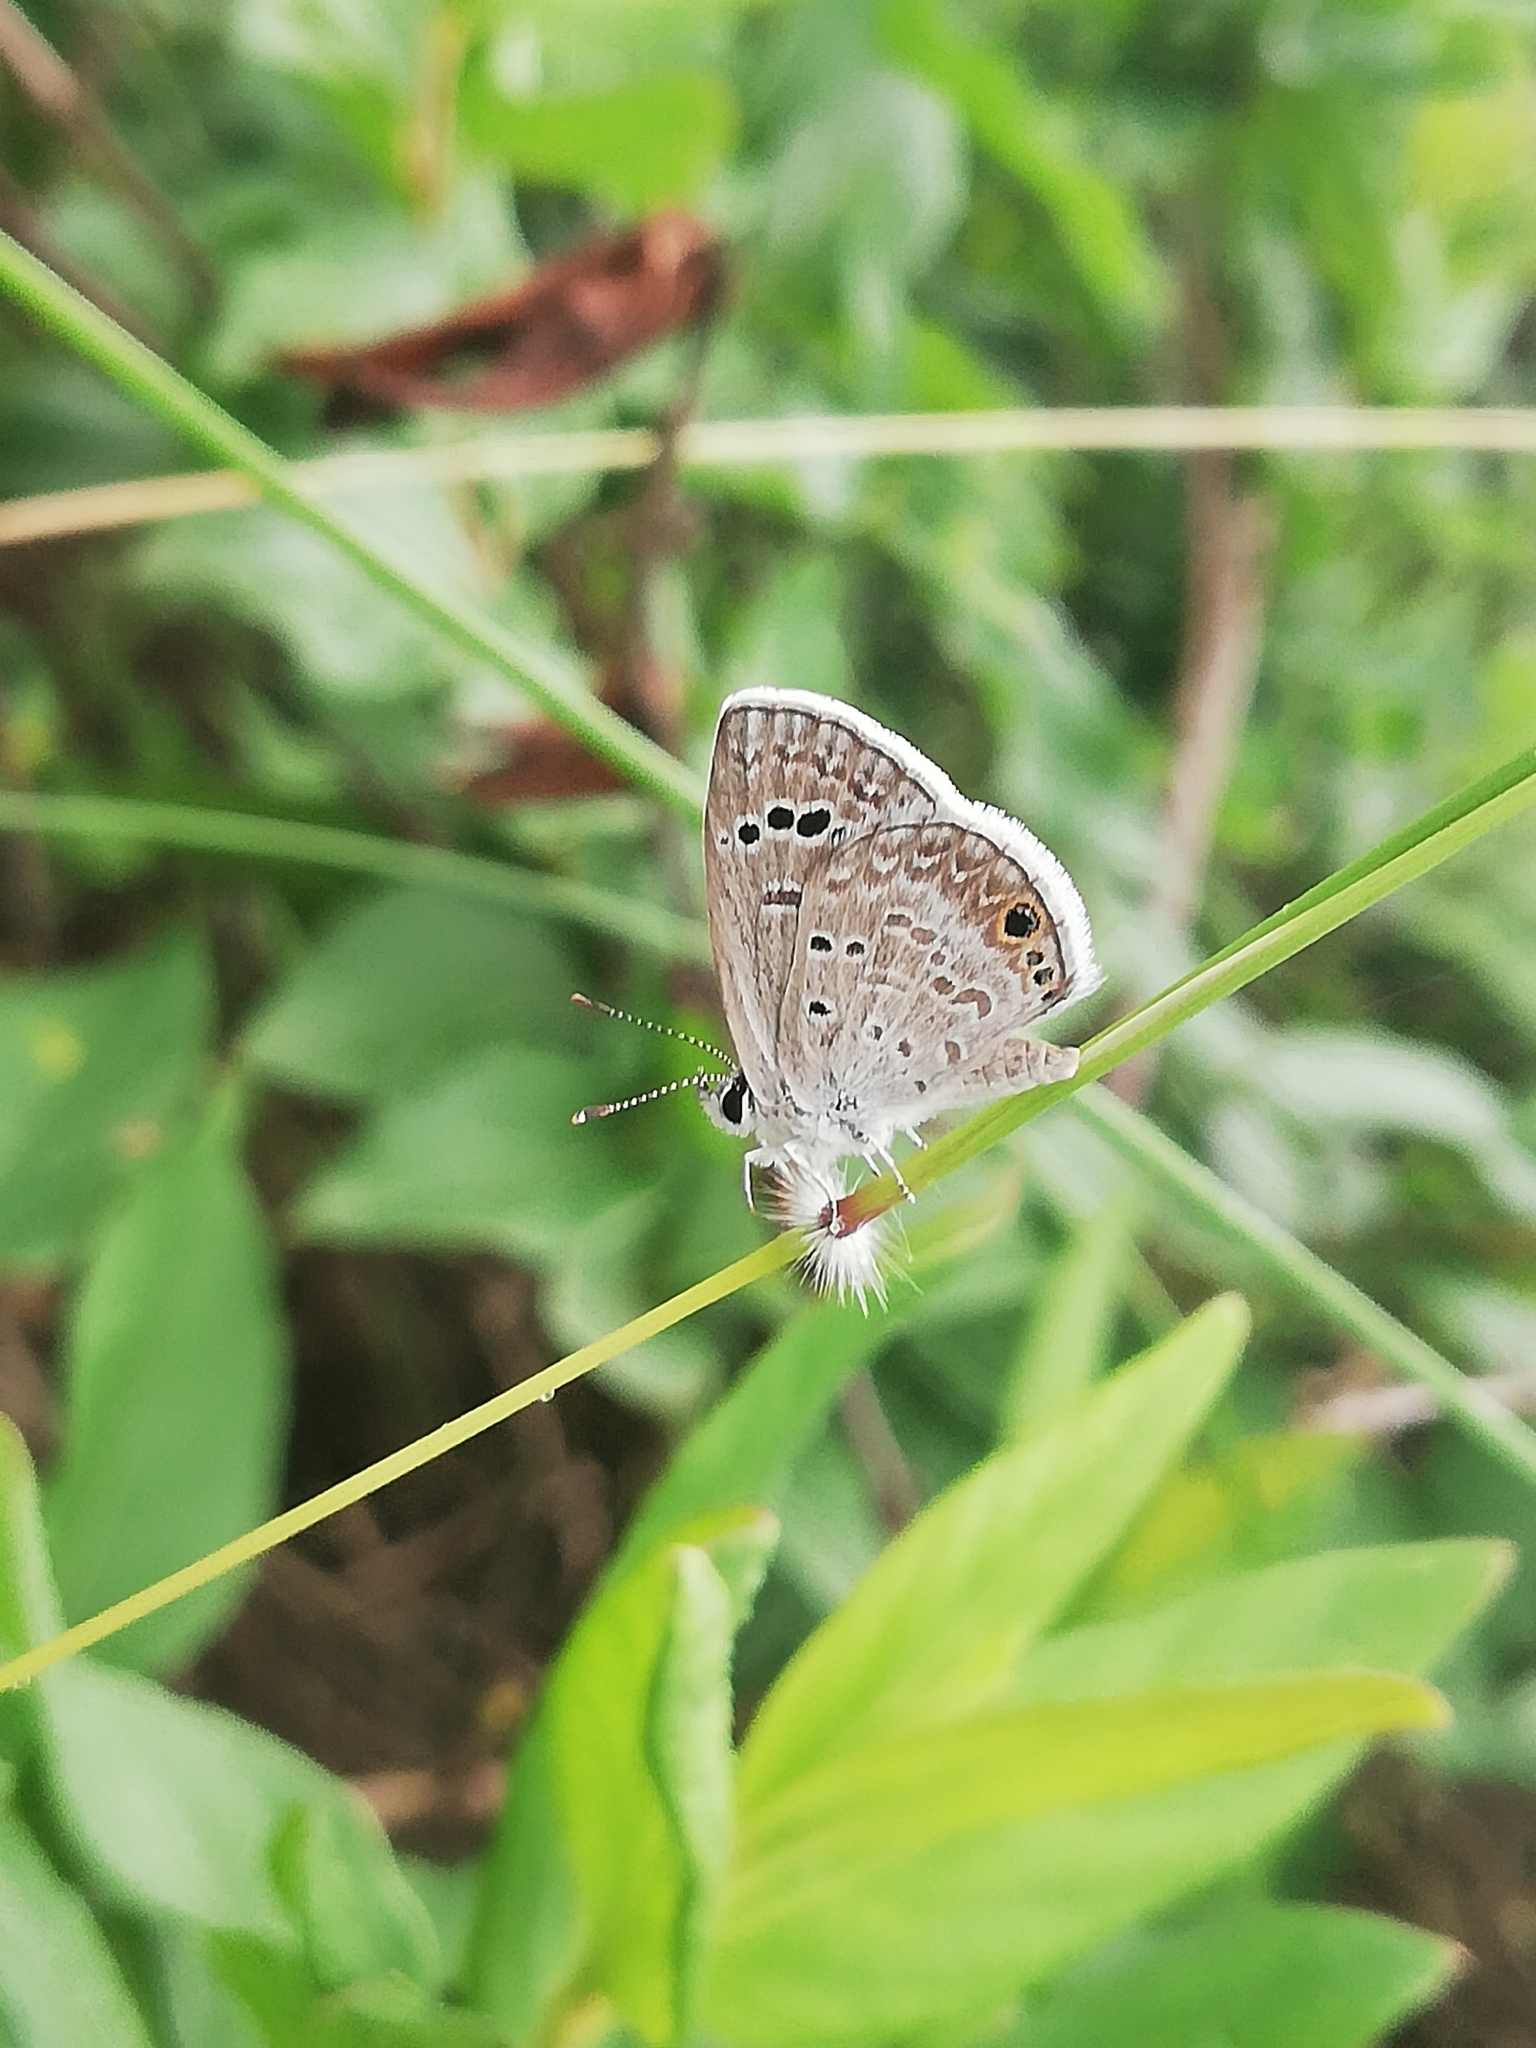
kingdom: Animalia
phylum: Arthropoda
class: Insecta
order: Lepidoptera
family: Lycaenidae
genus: Echinargus
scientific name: Echinargus isola
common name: Reakirt's blue
